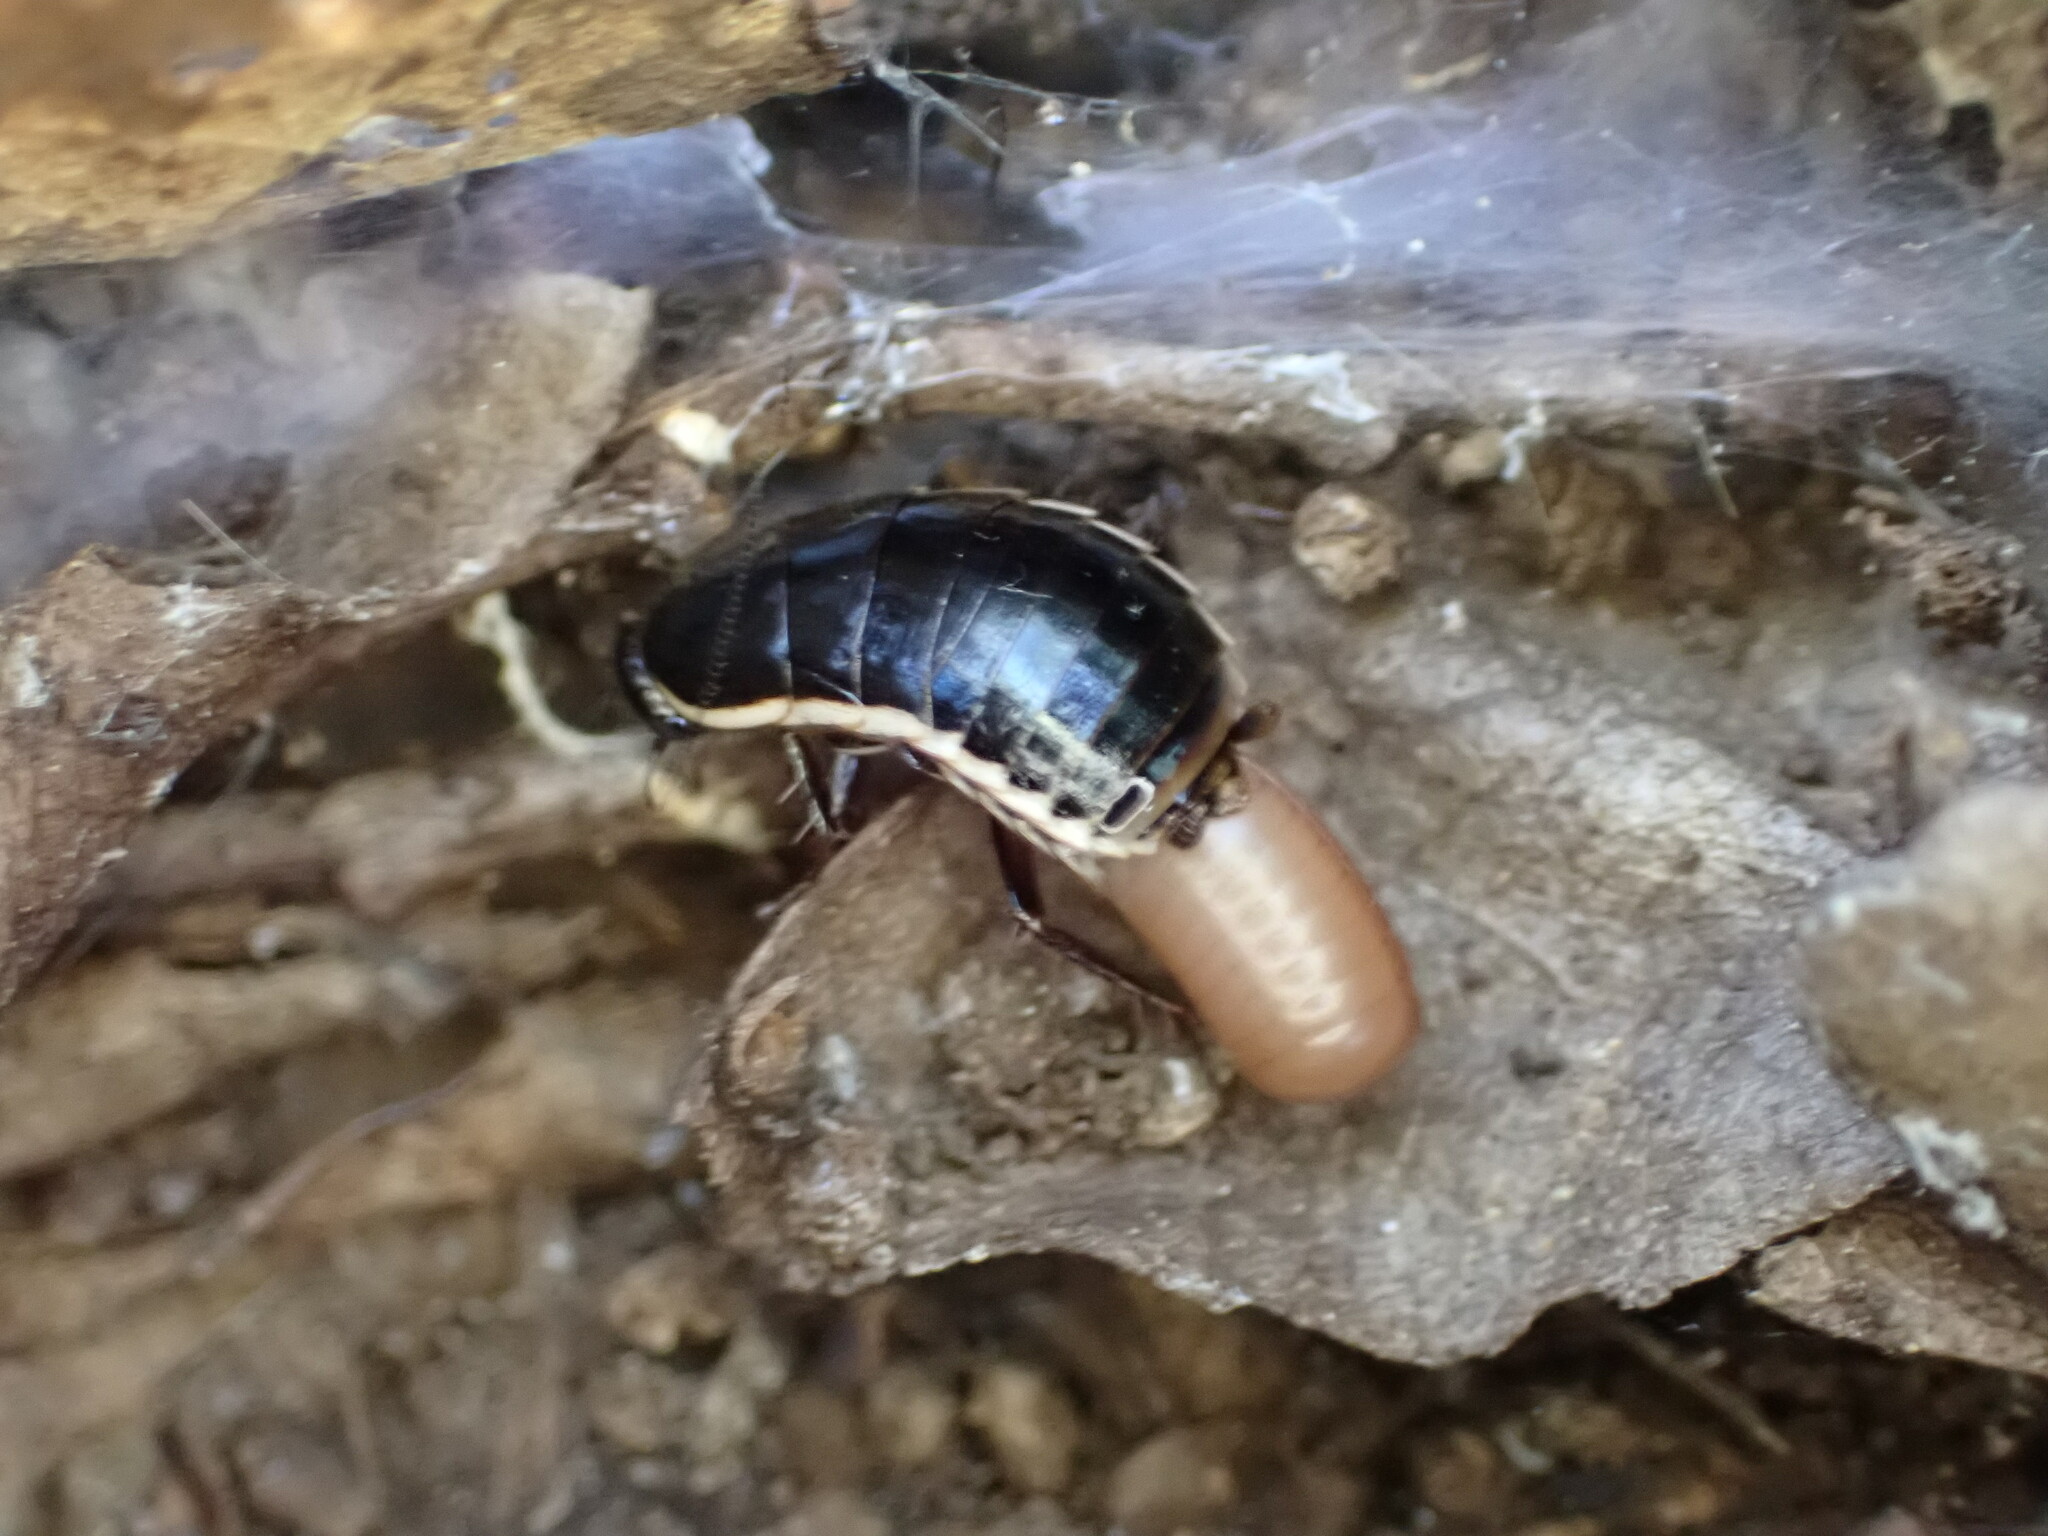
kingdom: Animalia
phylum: Arthropoda
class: Insecta
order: Blattodea
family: Ectobiidae
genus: Loboptera
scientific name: Loboptera decipiens
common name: Lobe-winged cockroach
